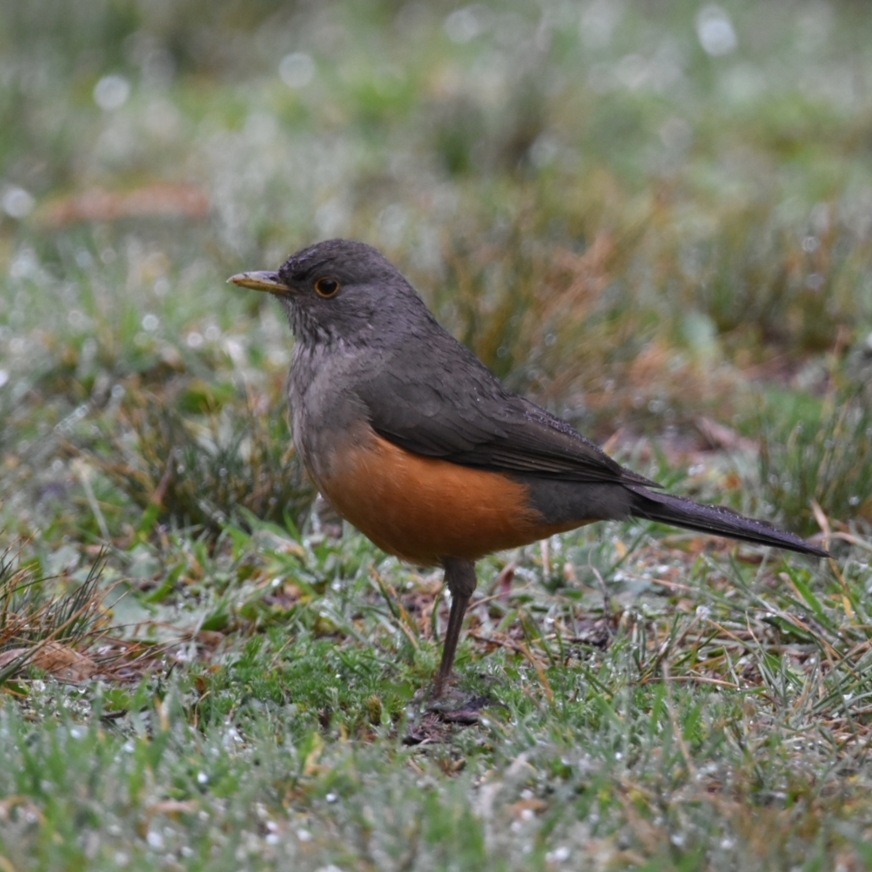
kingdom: Animalia
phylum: Chordata
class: Aves
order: Passeriformes
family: Turdidae
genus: Turdus
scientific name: Turdus rufiventris
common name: Rufous-bellied thrush
